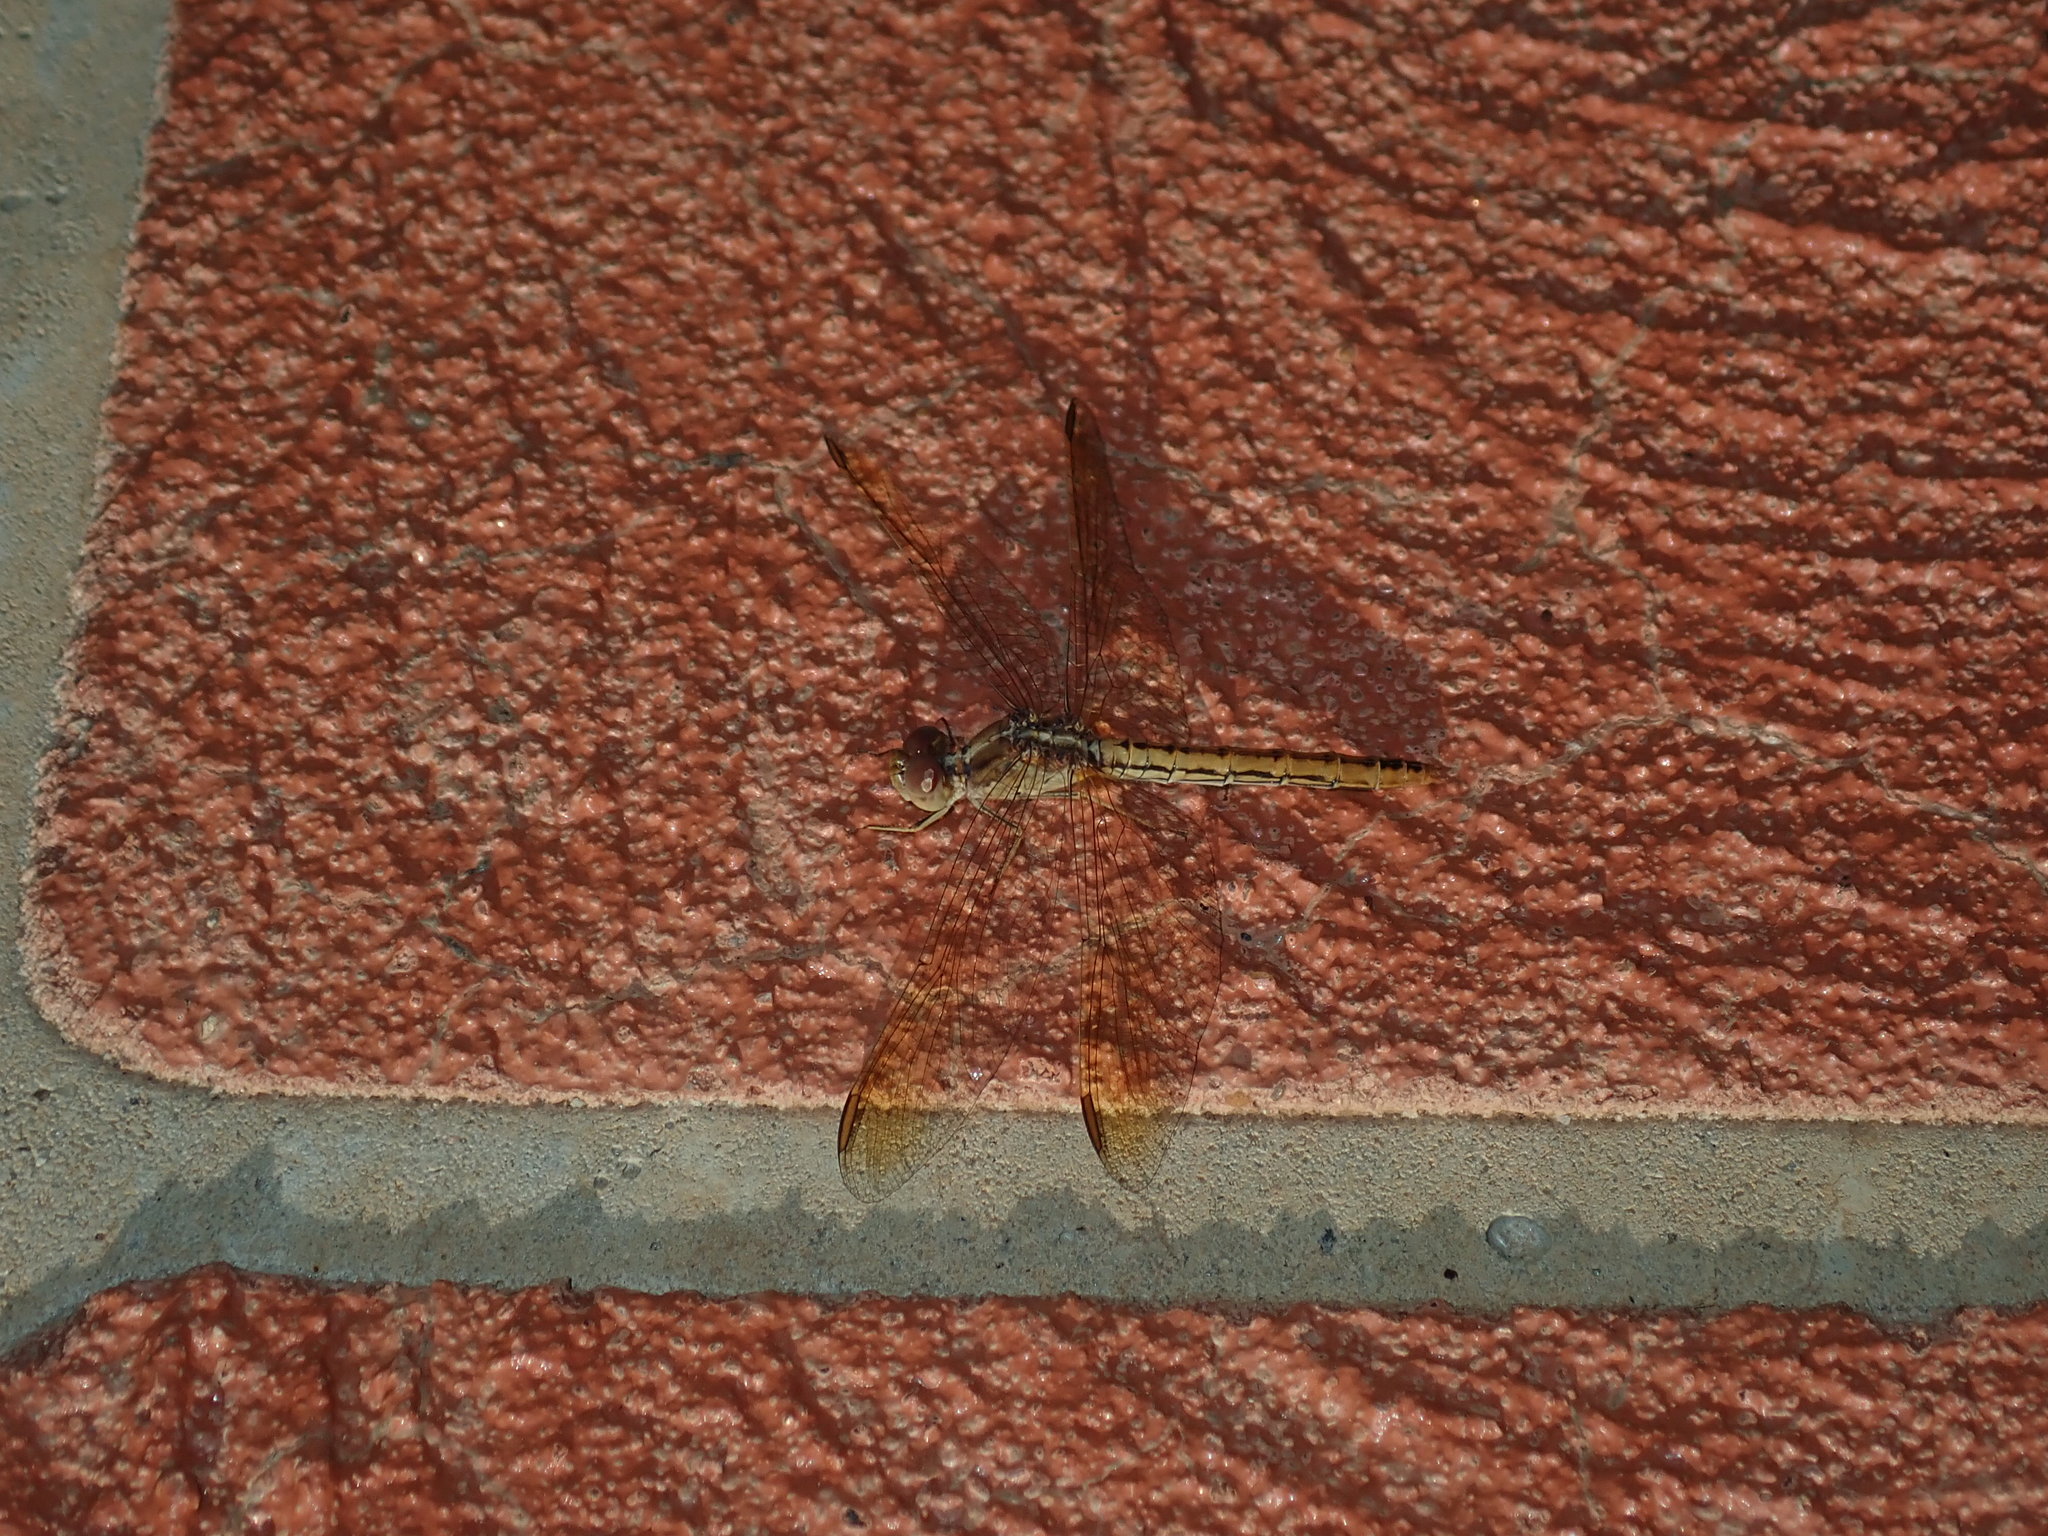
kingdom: Animalia
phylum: Arthropoda
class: Insecta
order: Odonata
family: Libellulidae
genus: Diplacodes
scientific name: Diplacodes haematodes
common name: Scarlet percher
